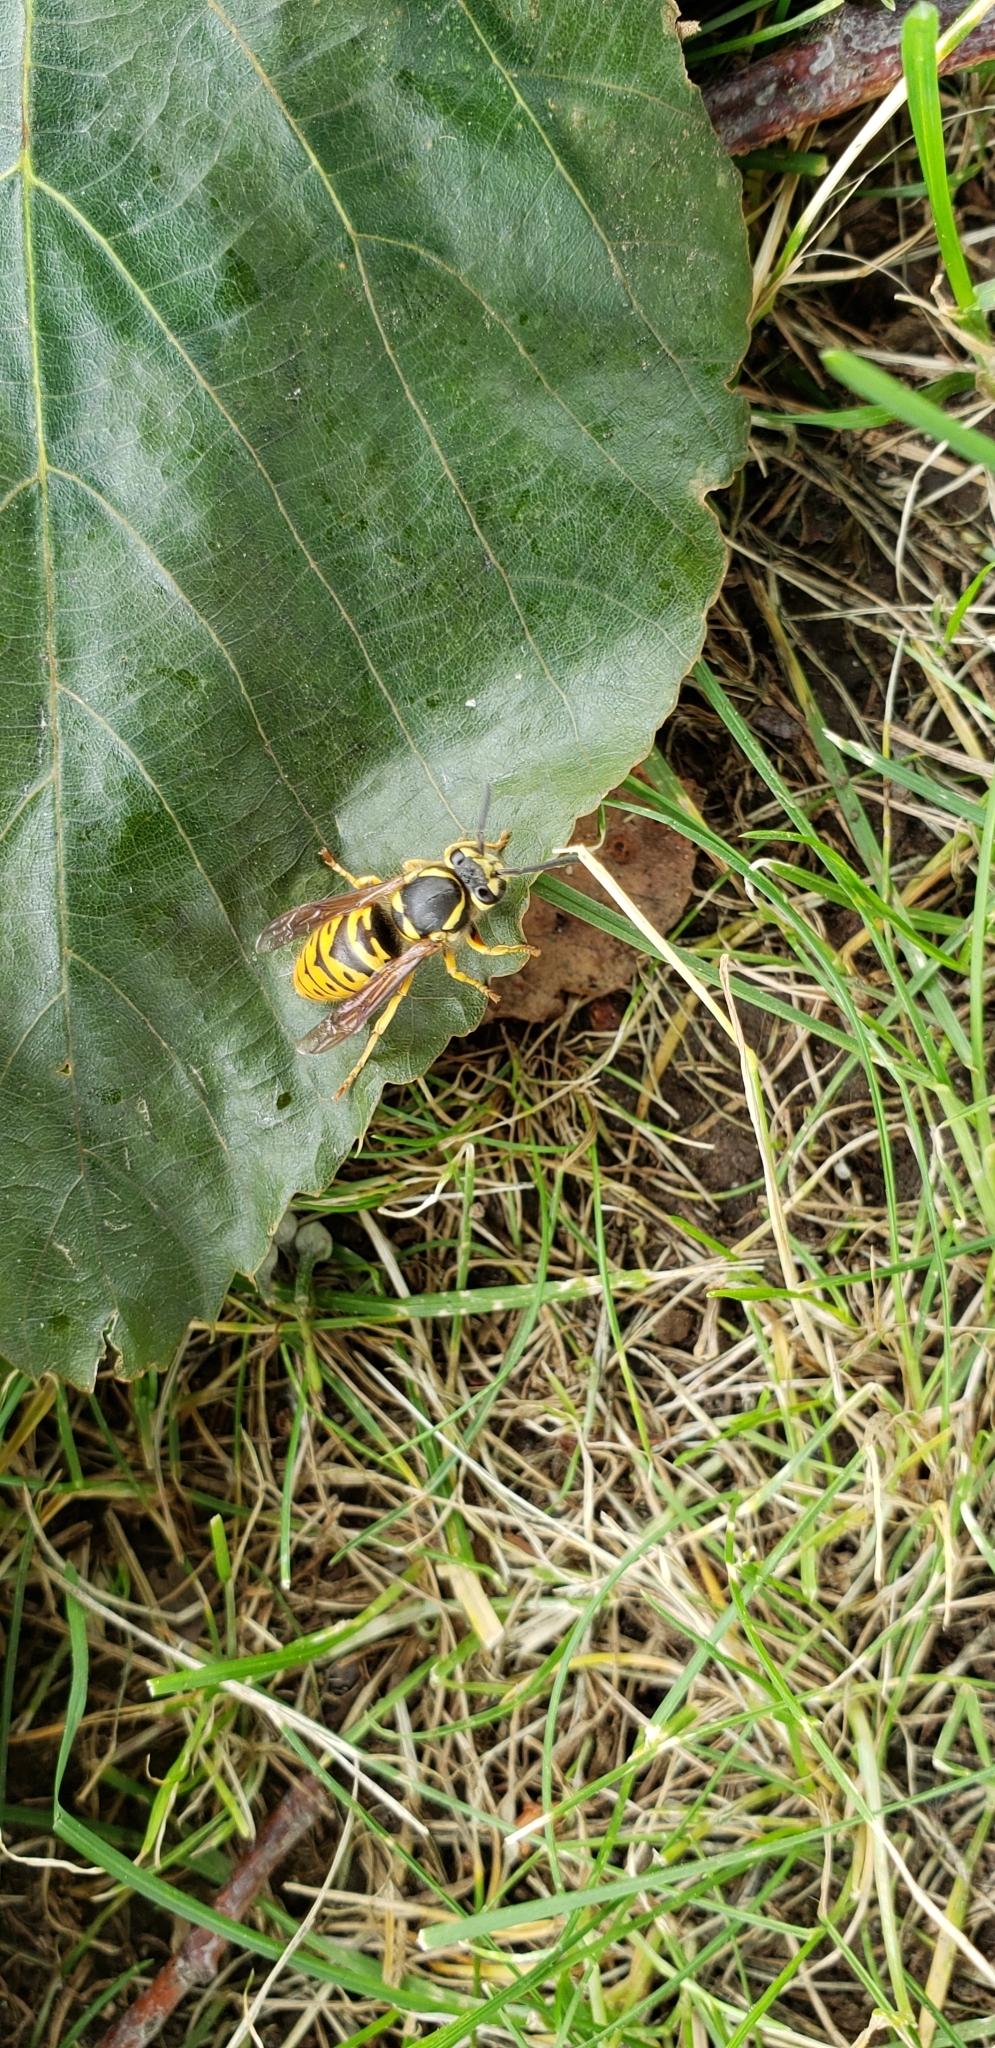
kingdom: Animalia
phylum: Arthropoda
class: Insecta
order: Hymenoptera
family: Vespidae
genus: Vespula
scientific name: Vespula maculifrons
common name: Eastern yellowjacket
